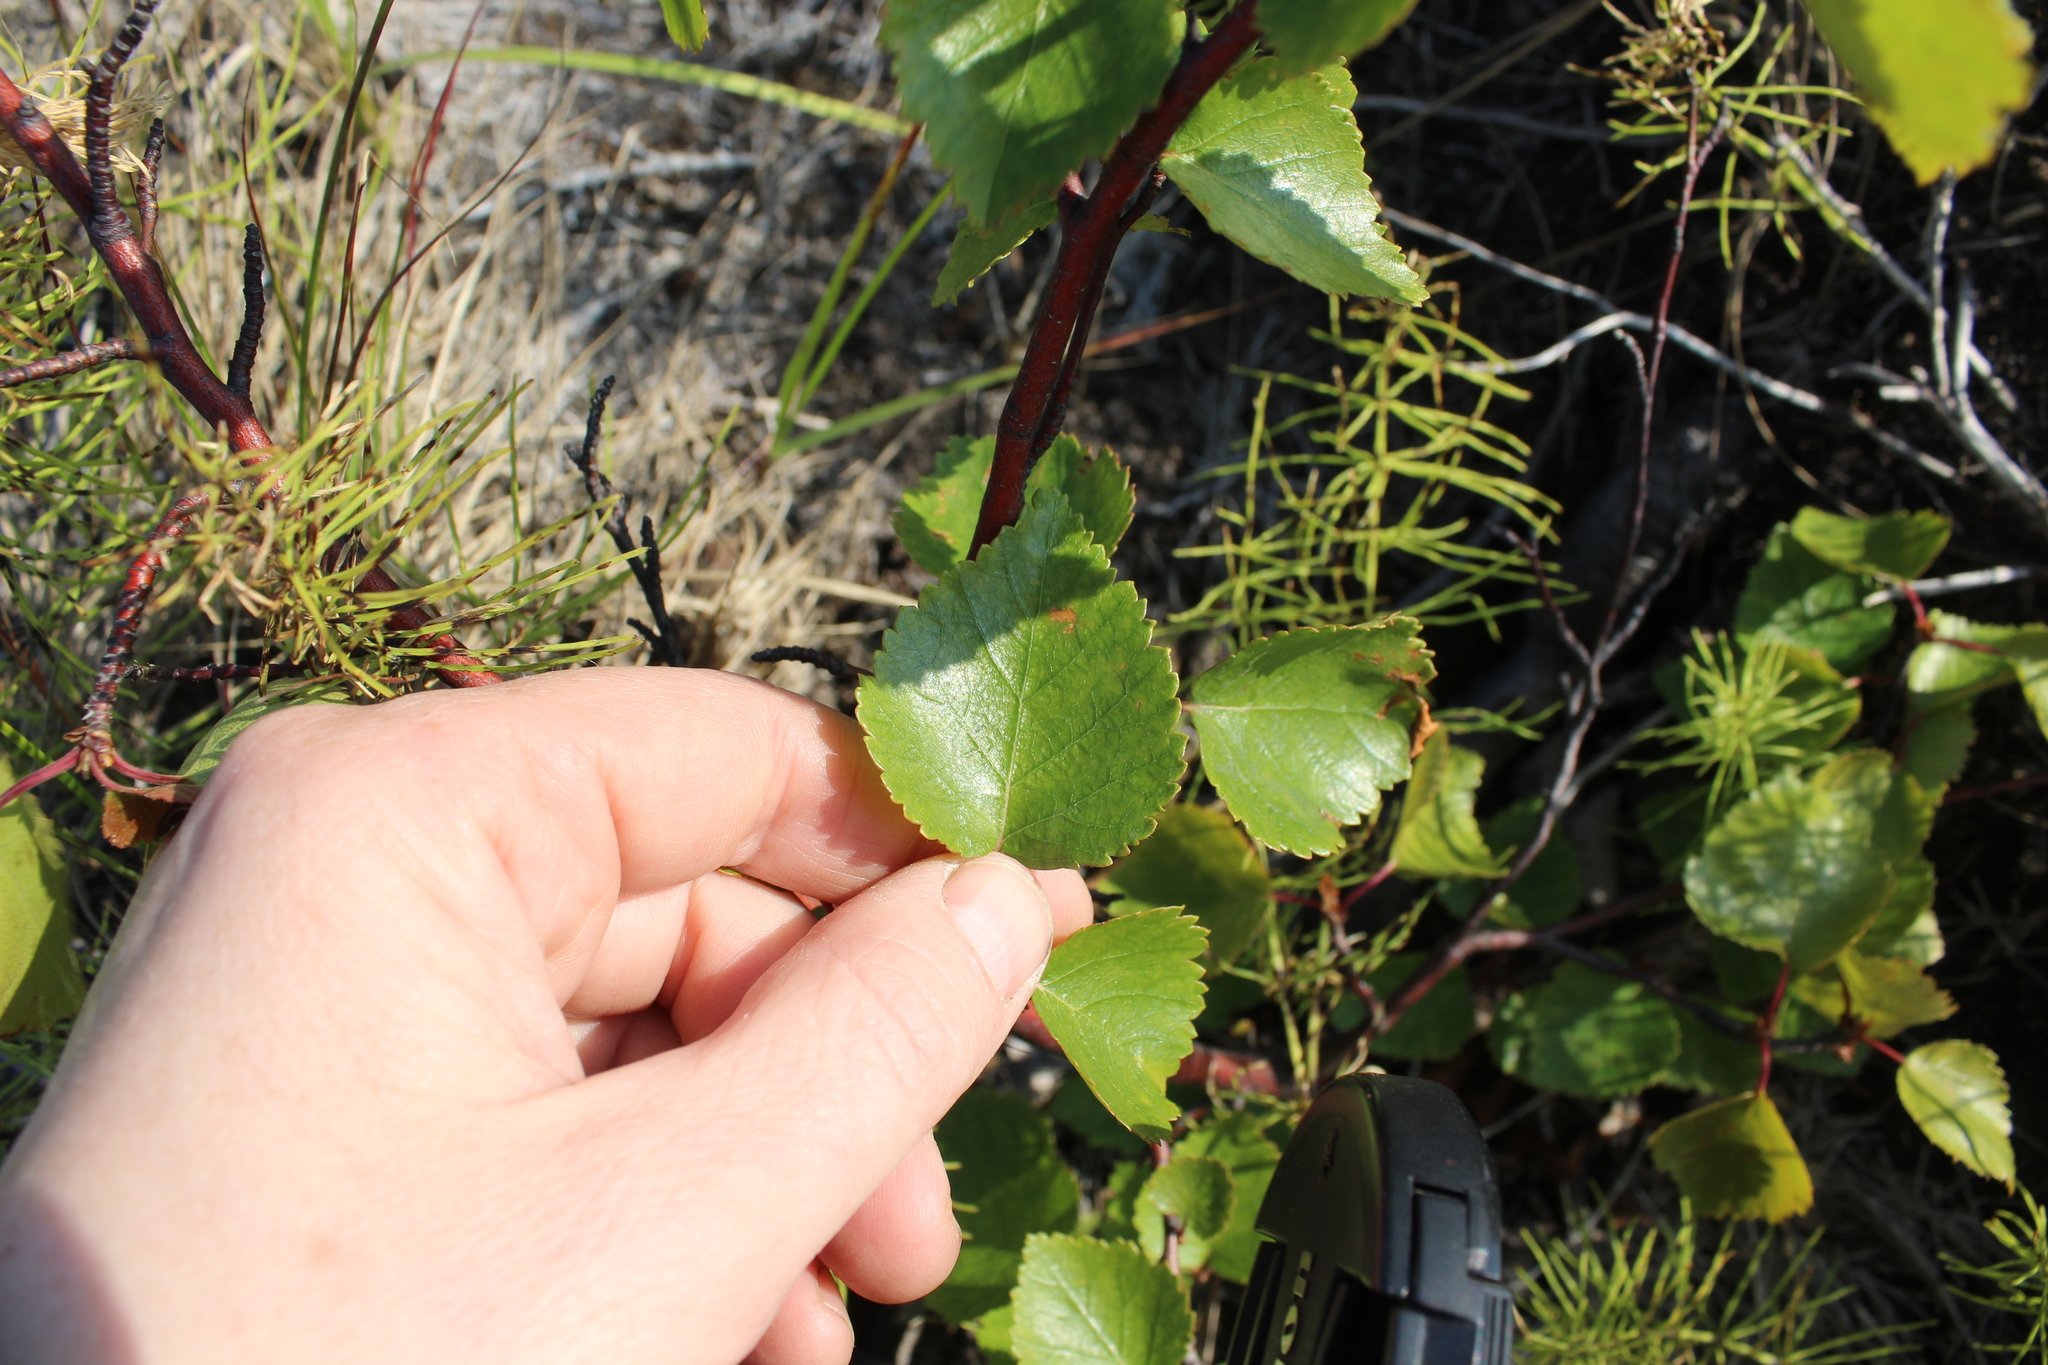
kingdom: Plantae
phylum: Tracheophyta
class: Magnoliopsida
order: Fagales
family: Betulaceae
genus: Betula
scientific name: Betula pubescens
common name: Downy birch
